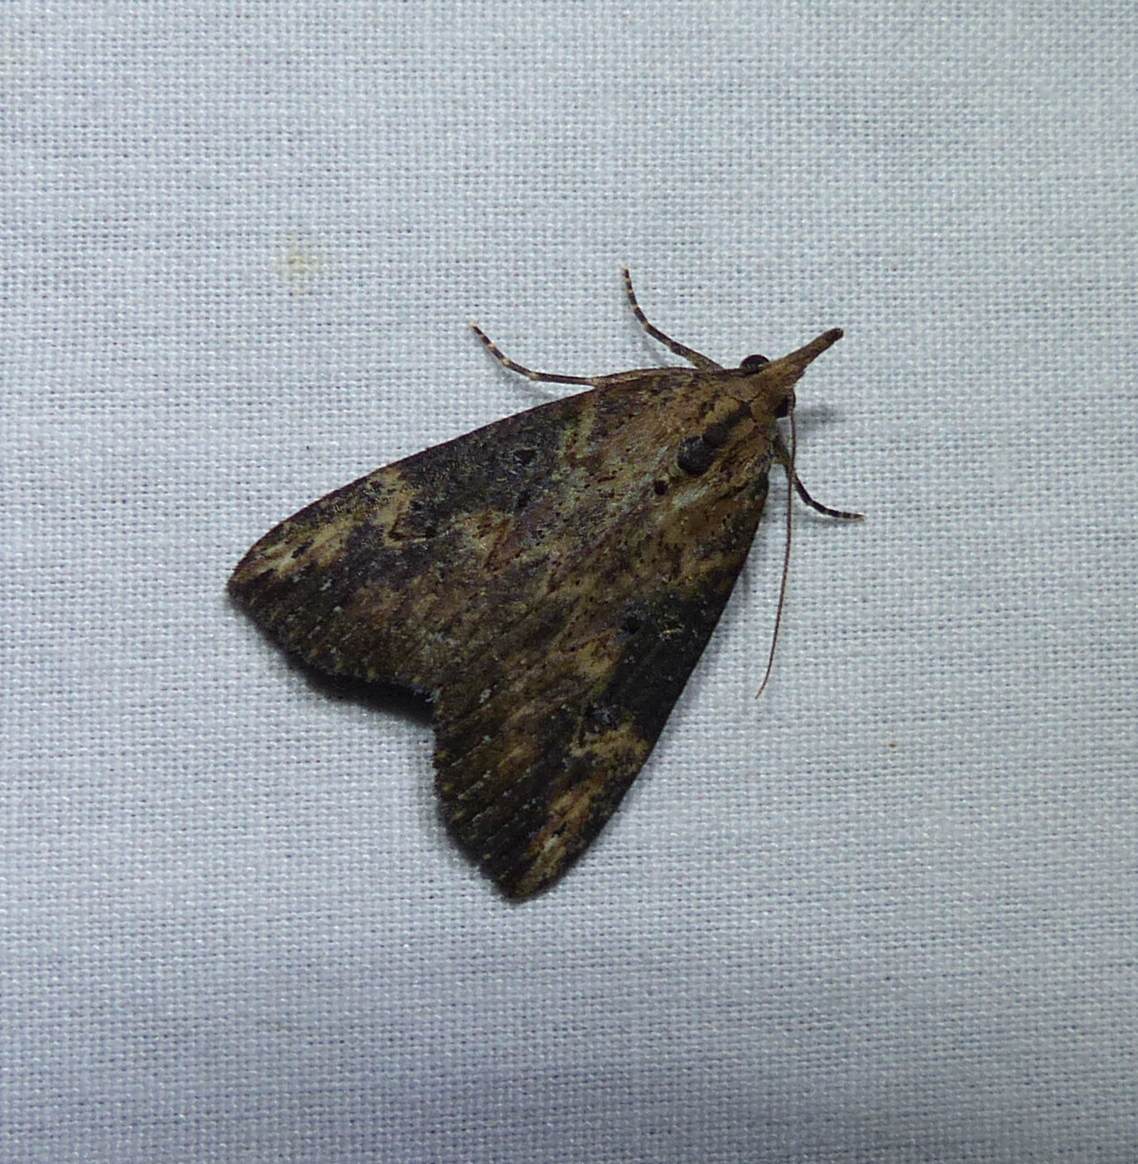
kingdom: Animalia
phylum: Arthropoda
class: Insecta
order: Lepidoptera
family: Erebidae
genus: Hypena
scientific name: Hypena humuli
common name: Hop vine snout
